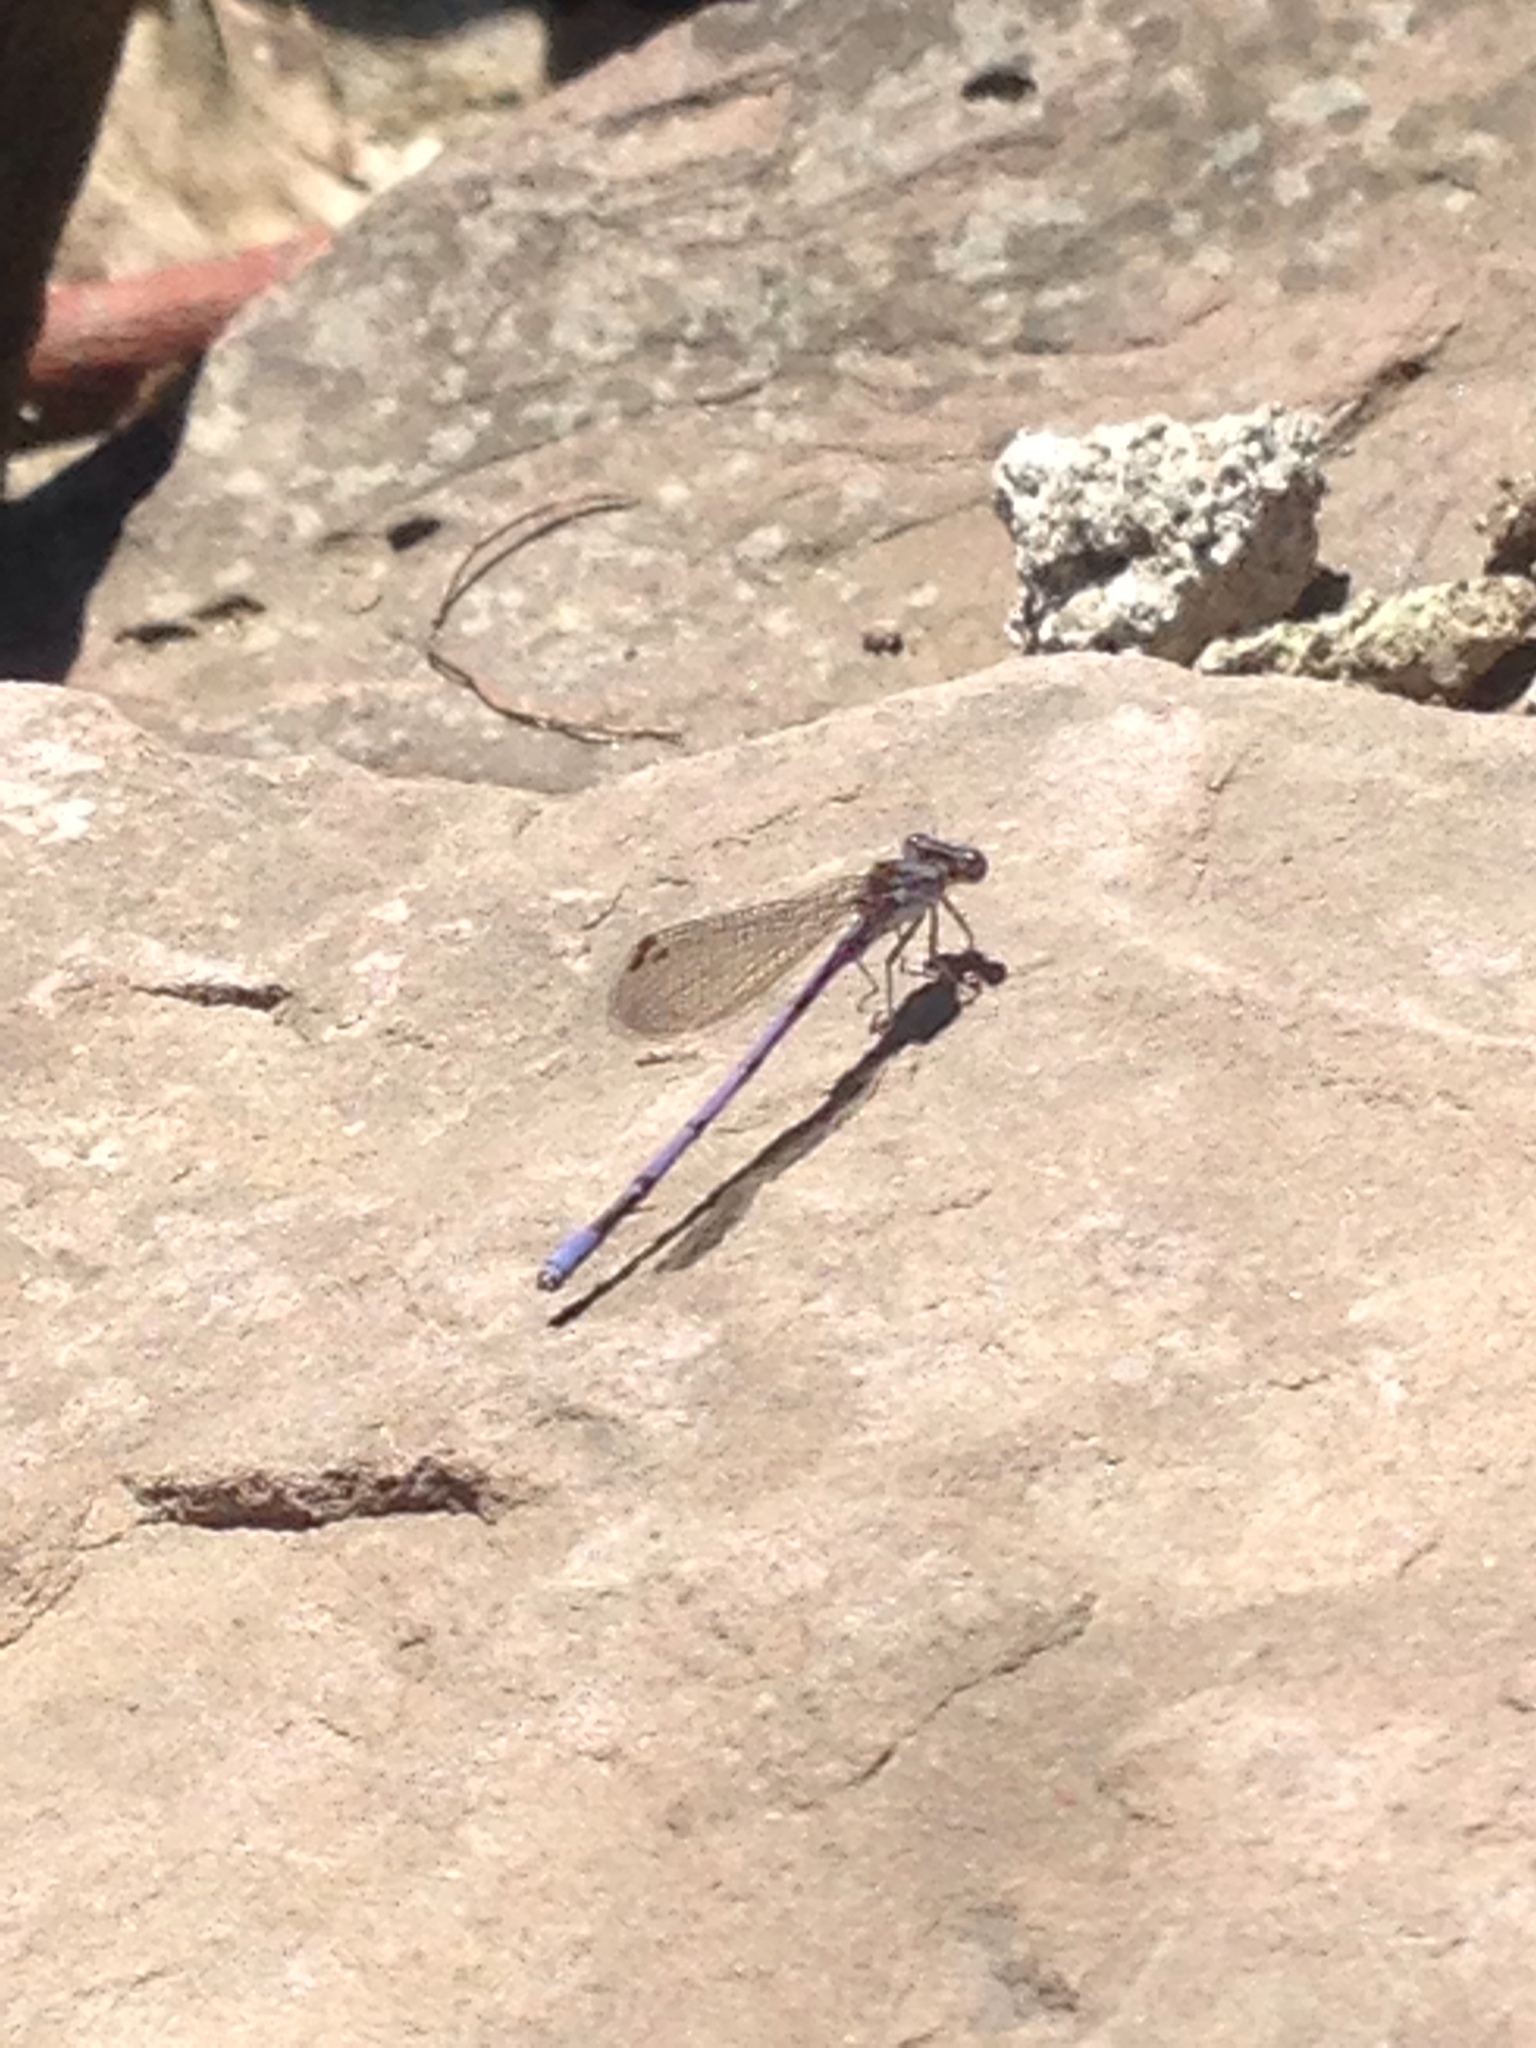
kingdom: Animalia
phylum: Arthropoda
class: Insecta
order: Odonata
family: Coenagrionidae
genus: Argia
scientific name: Argia fumipennis
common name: Variable dancer
